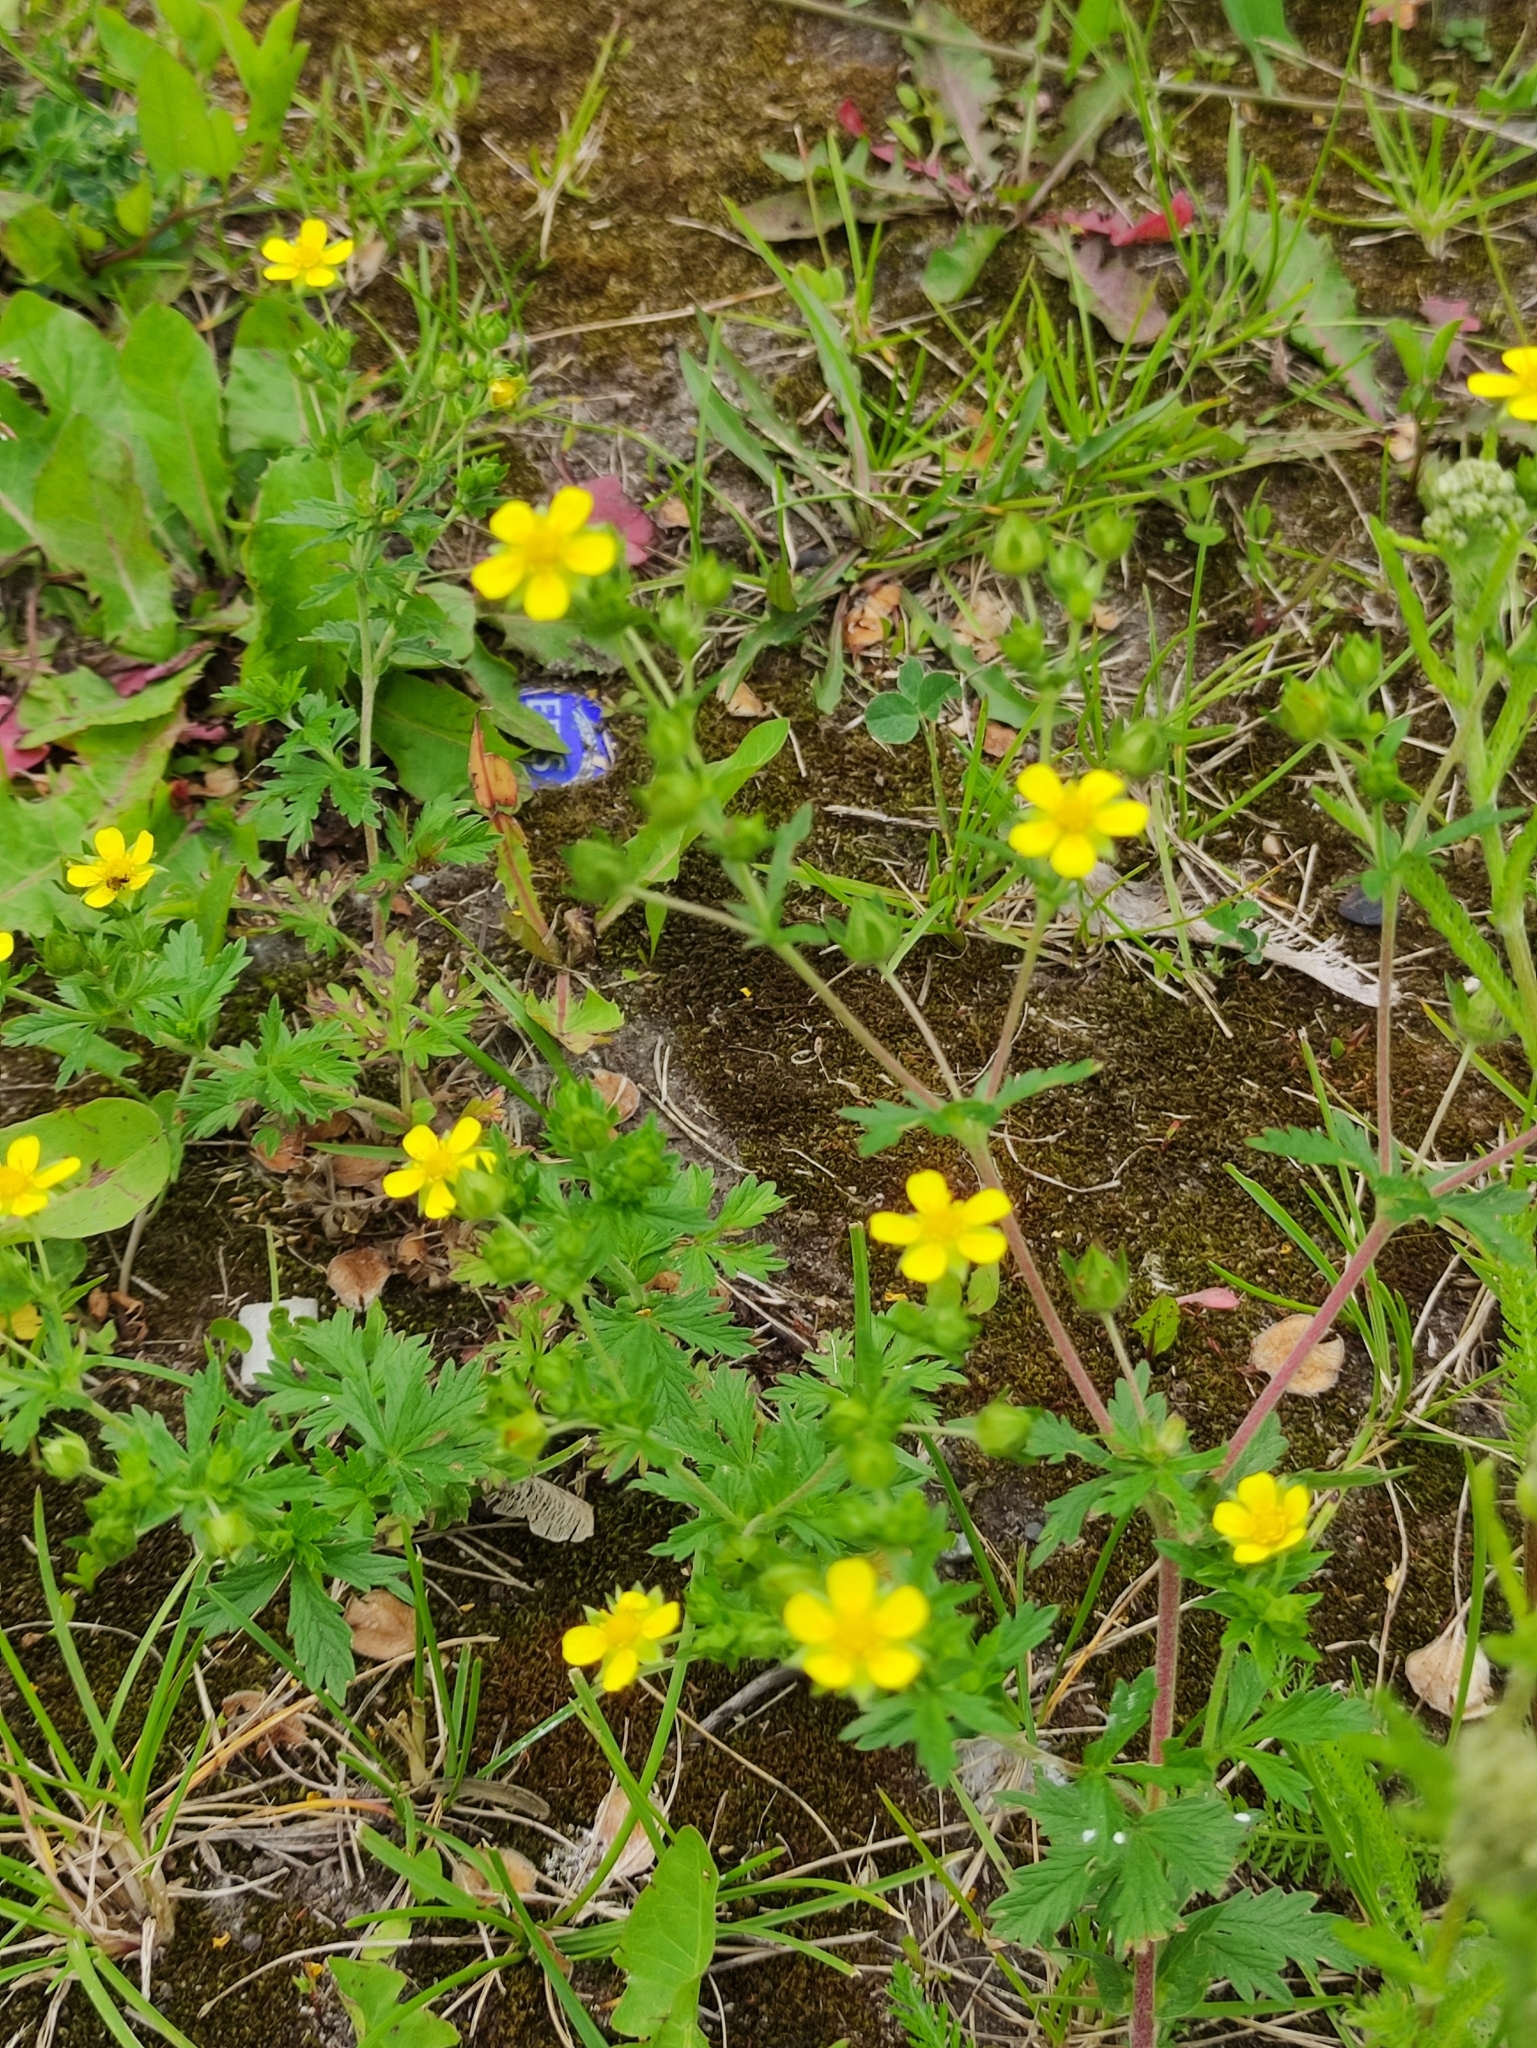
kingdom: Plantae
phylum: Tracheophyta
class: Magnoliopsida
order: Rosales
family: Rosaceae
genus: Potentilla
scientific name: Potentilla intermedia
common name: Downy cinquefoil
